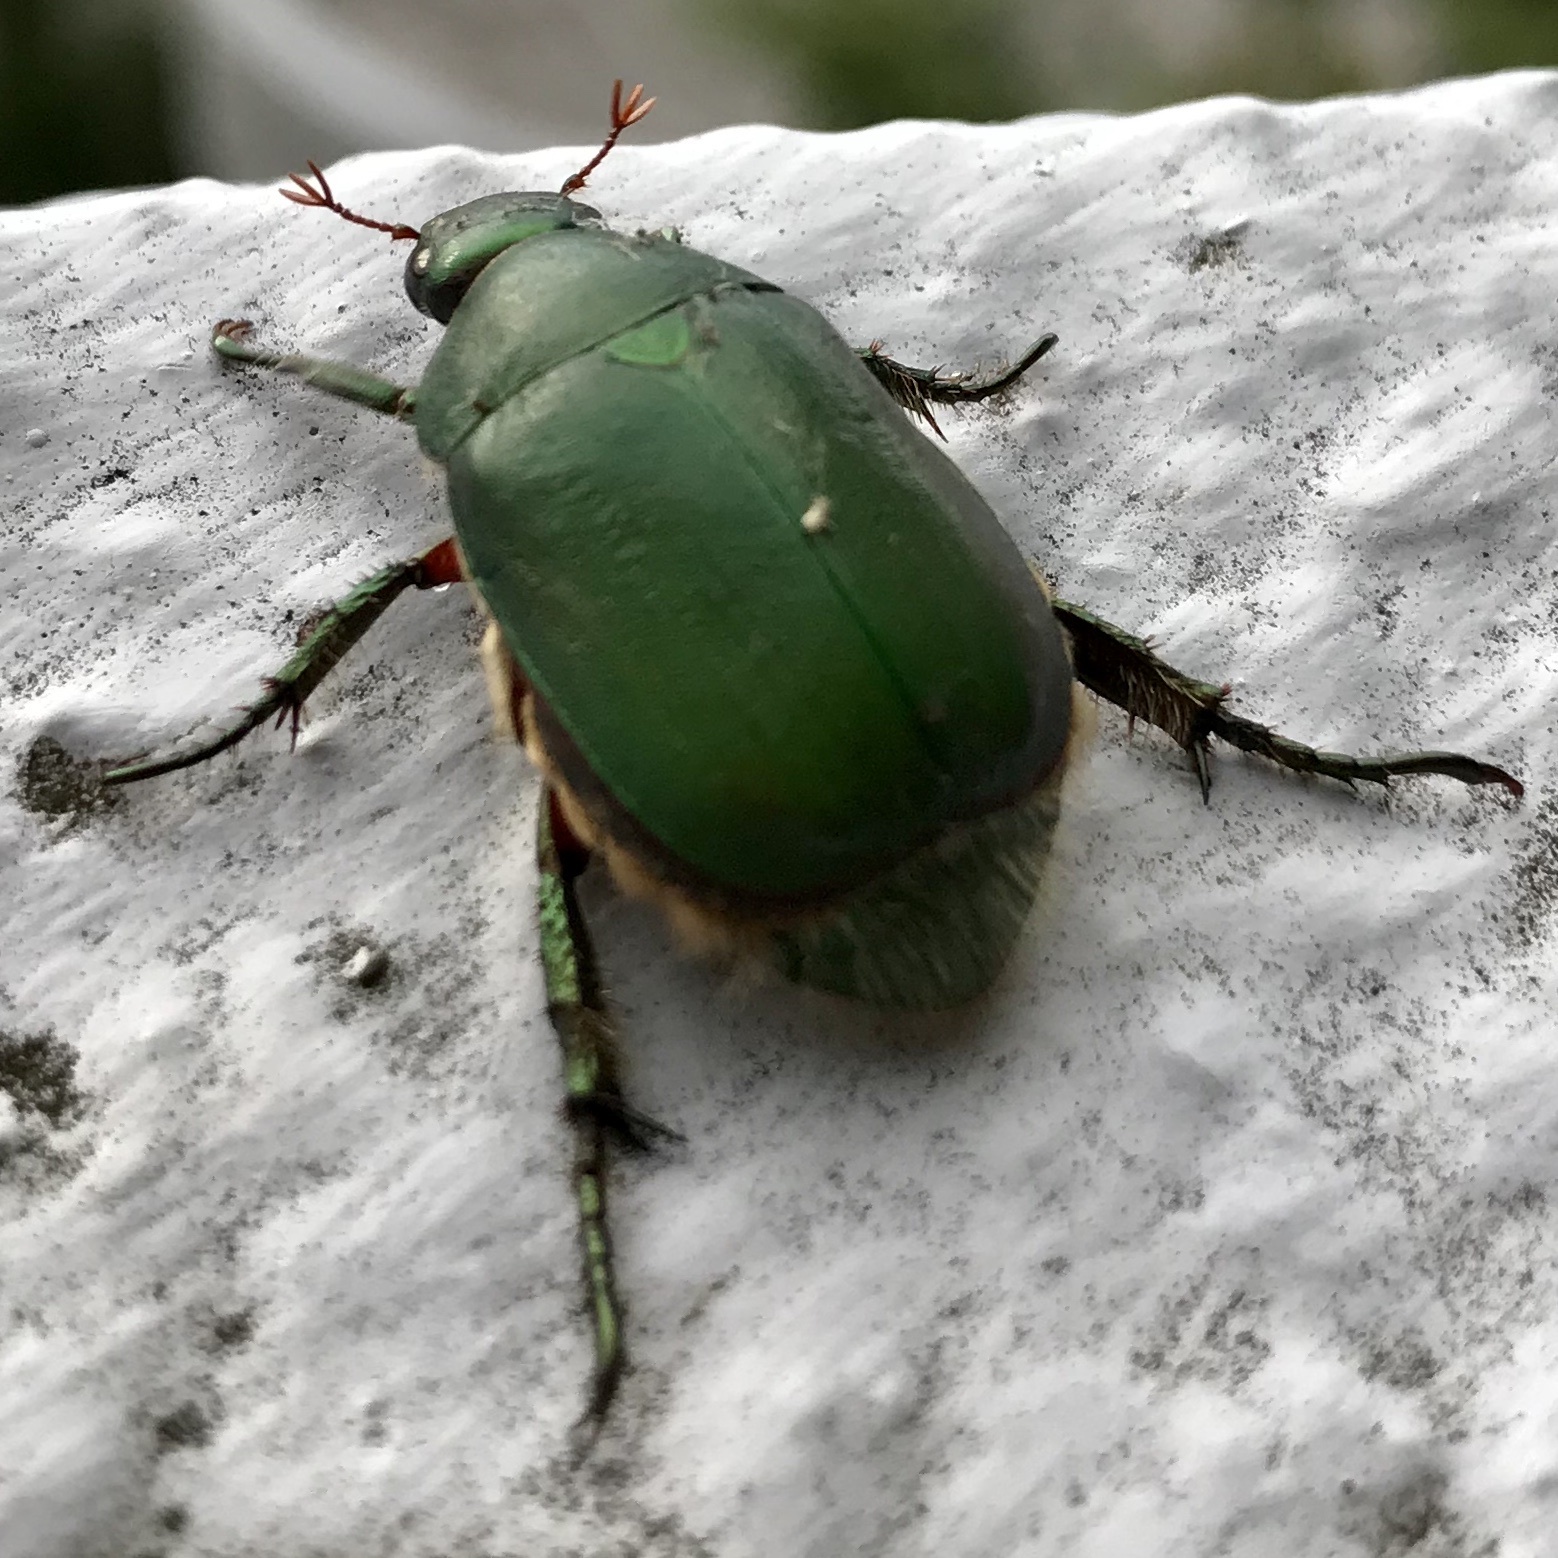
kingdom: Animalia
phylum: Arthropoda
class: Insecta
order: Coleoptera
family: Scarabaeidae
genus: Anomala
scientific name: Anomala albopilosa
